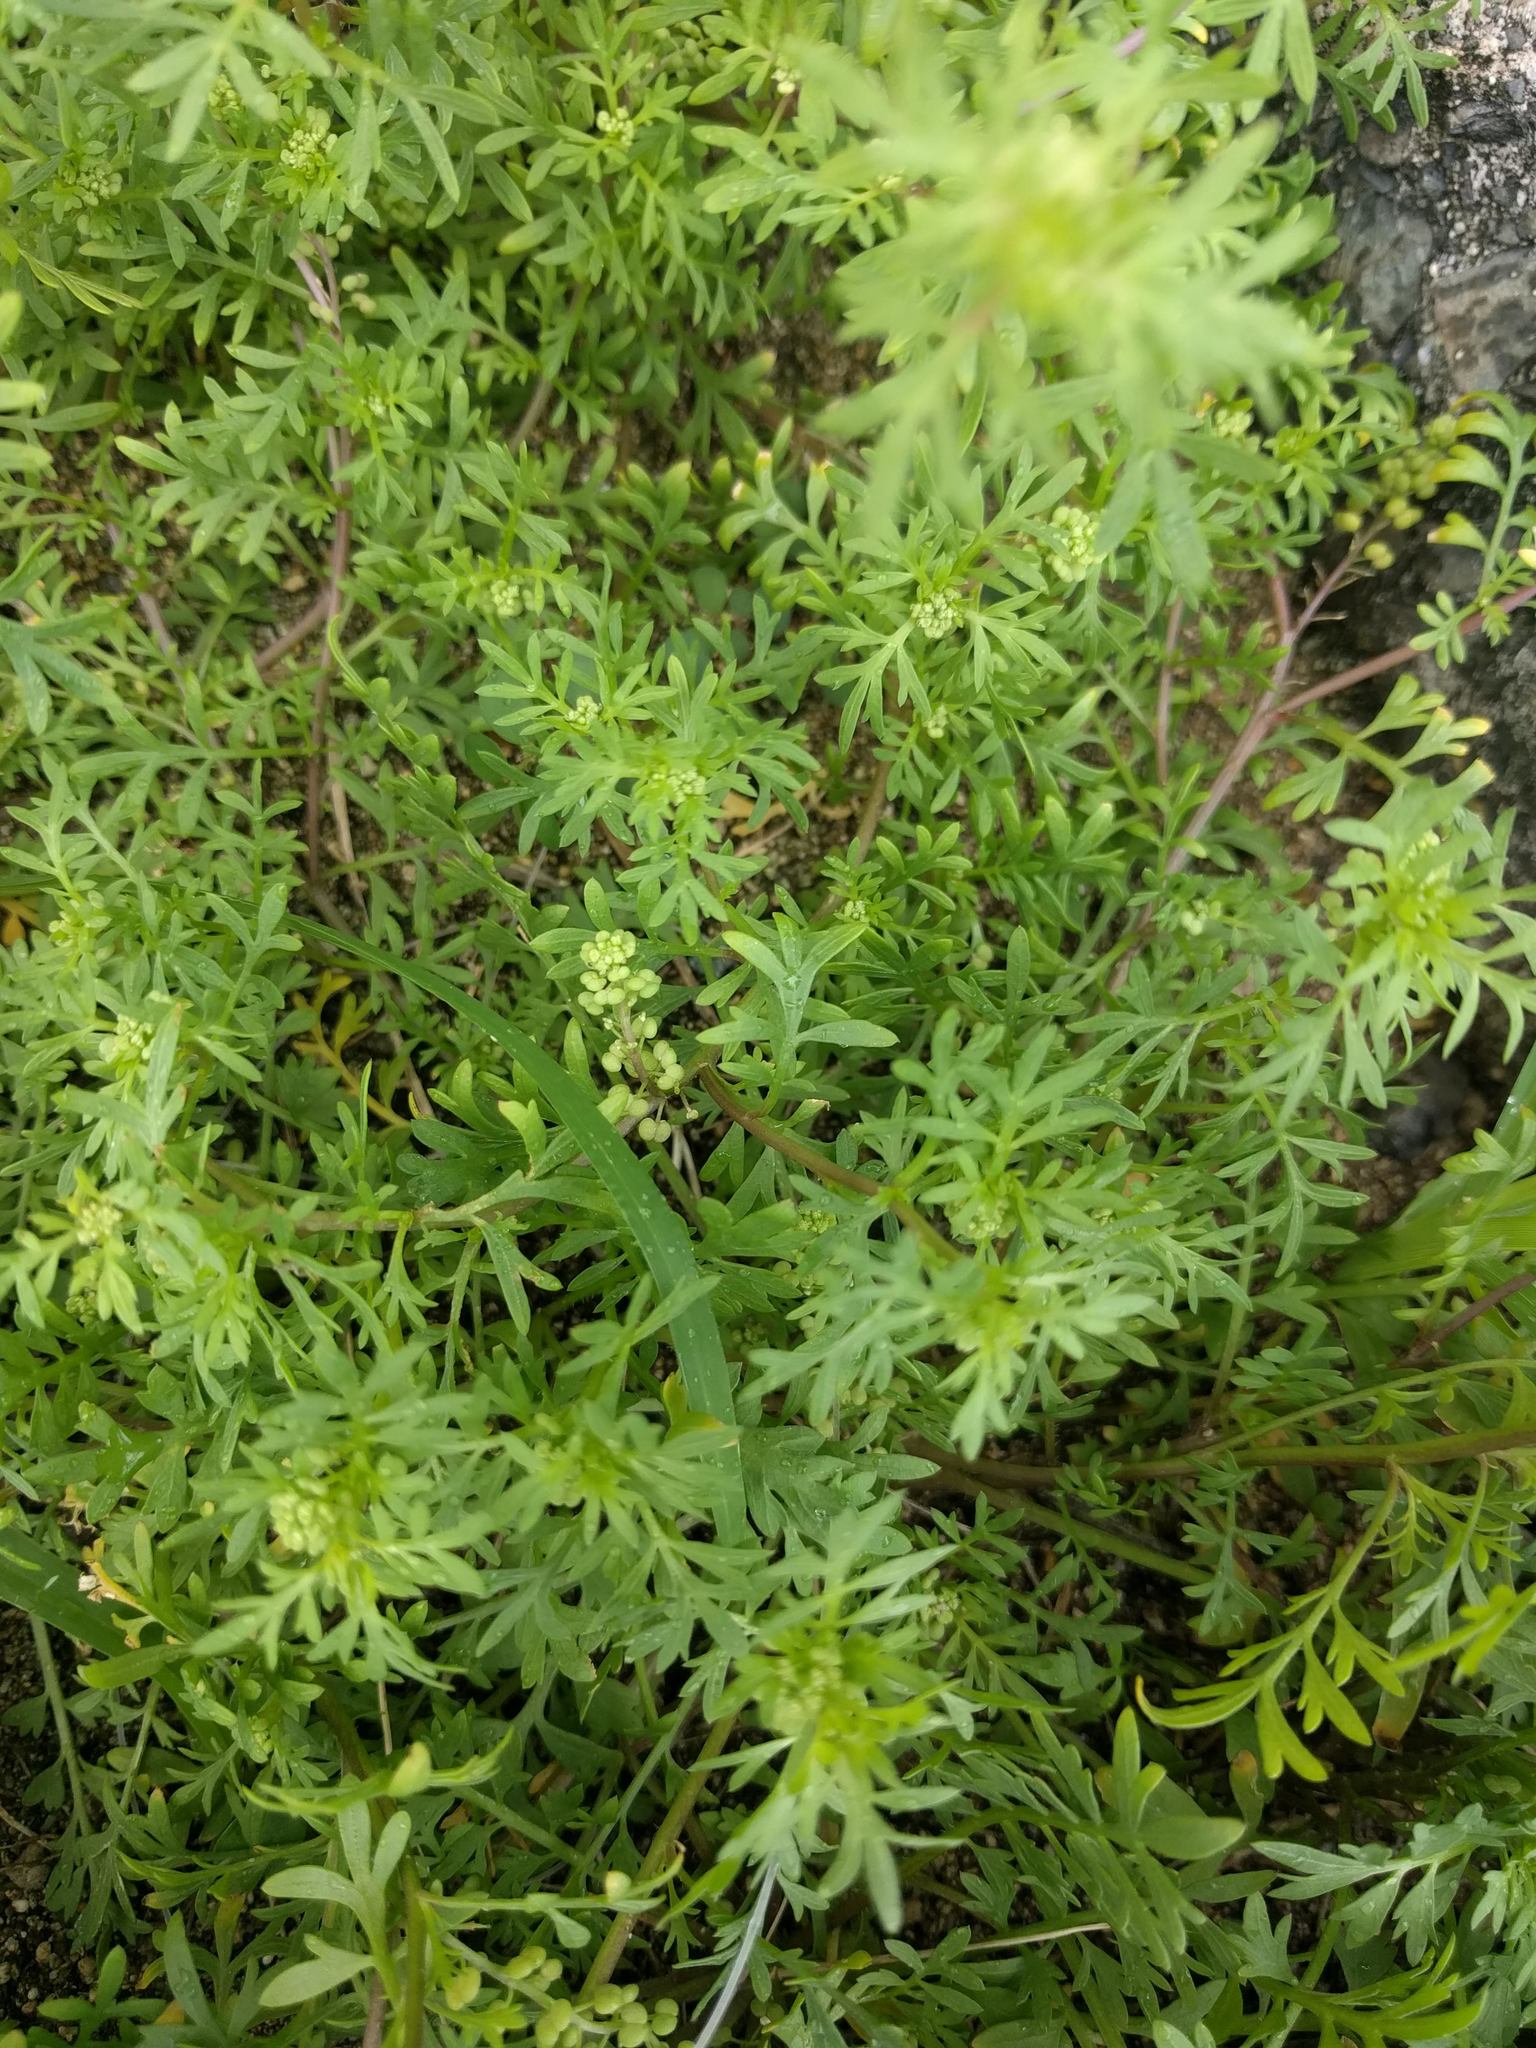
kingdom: Plantae
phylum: Tracheophyta
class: Magnoliopsida
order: Brassicales
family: Brassicaceae
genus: Lepidium
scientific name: Lepidium didymum
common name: Lesser swinecress
